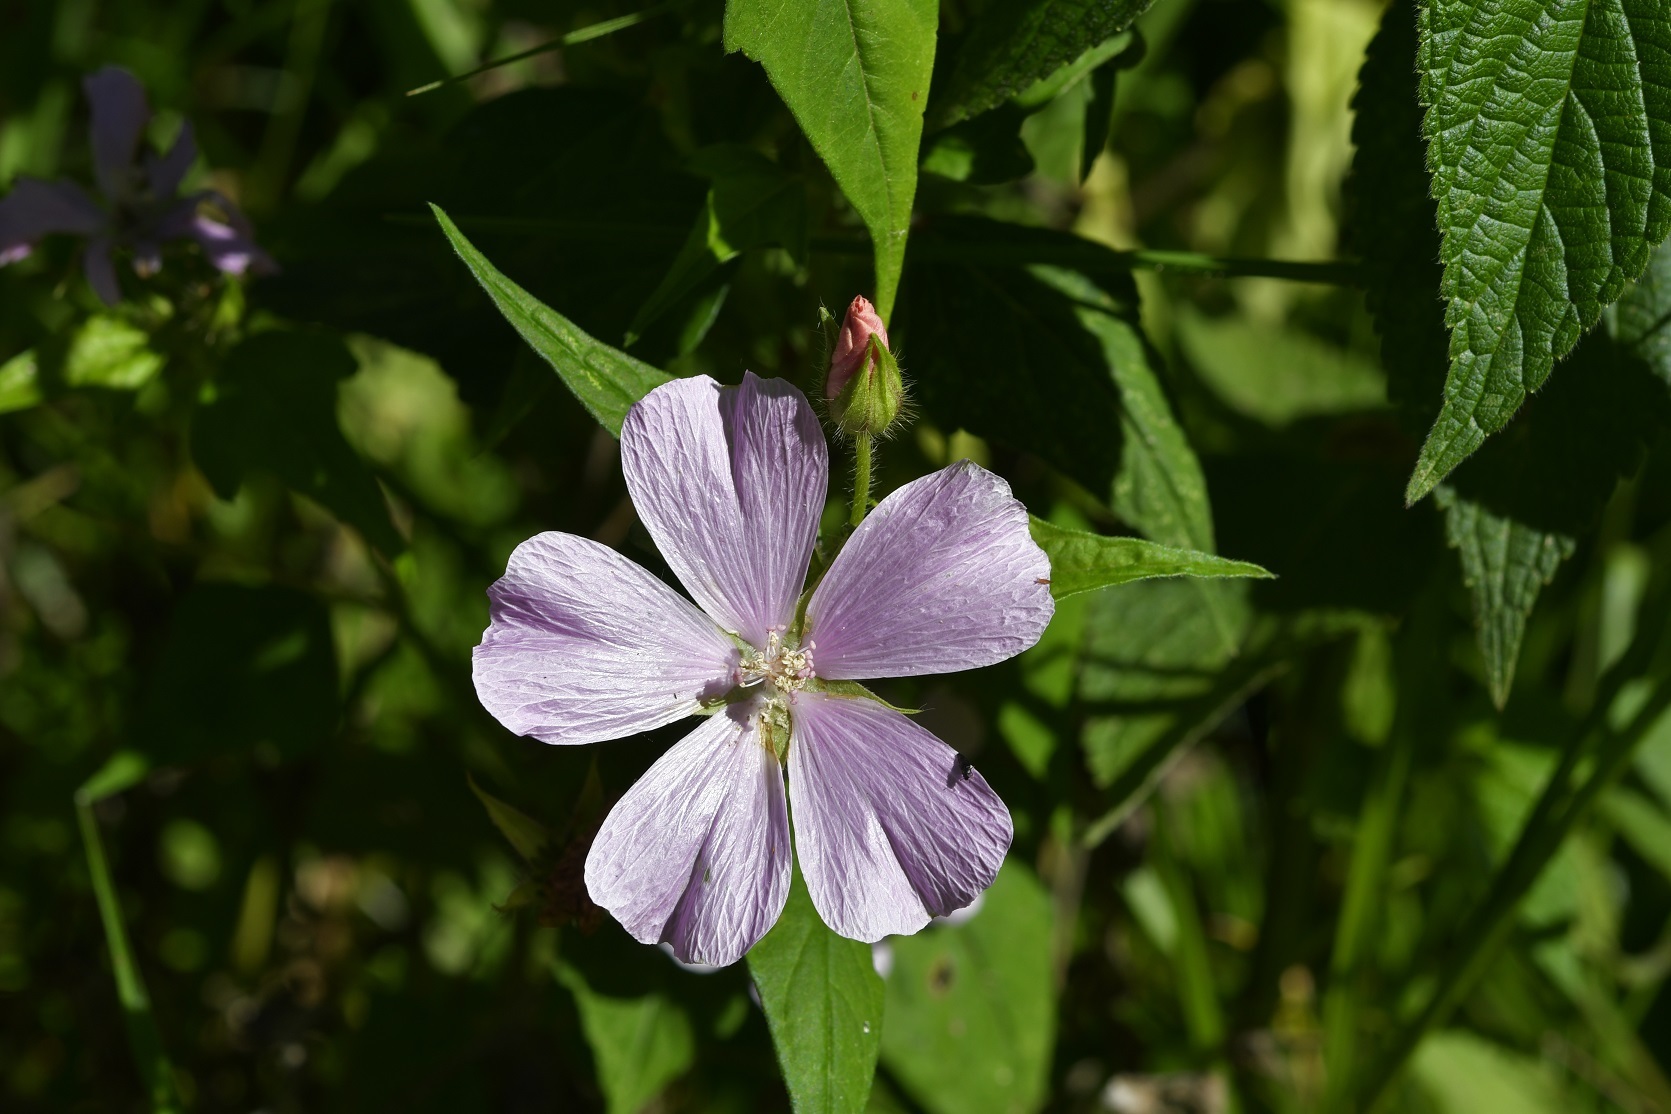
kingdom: Plantae
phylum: Tracheophyta
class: Magnoliopsida
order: Malvales
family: Malvaceae
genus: Anoda
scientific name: Anoda cristata
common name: Spurred anoda
